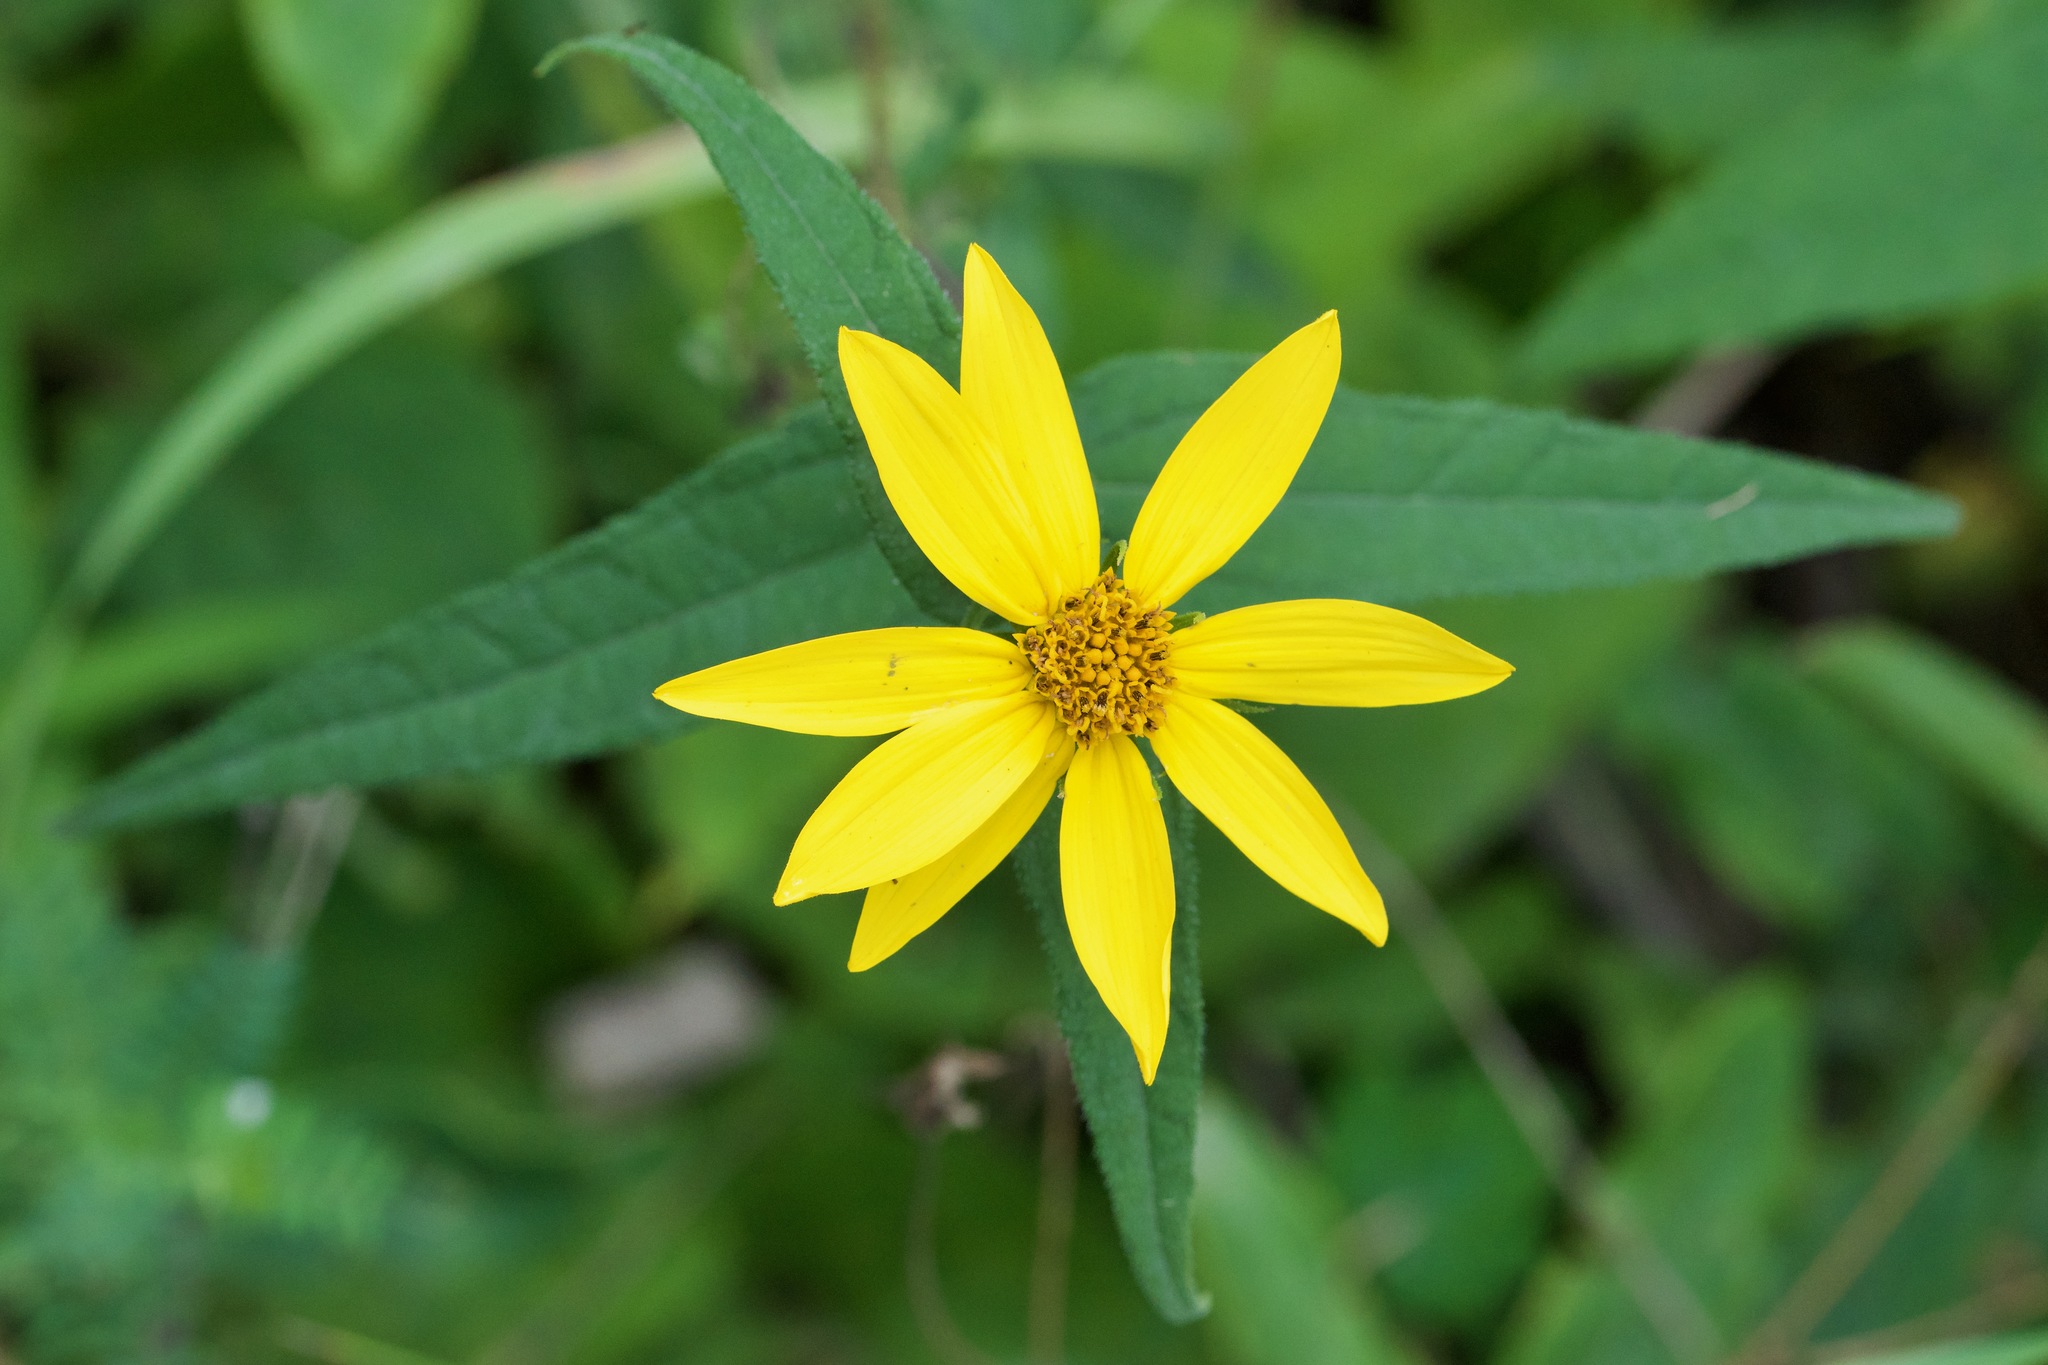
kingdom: Plantae
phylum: Tracheophyta
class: Magnoliopsida
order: Asterales
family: Asteraceae
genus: Helianthus
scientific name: Helianthus divaricatus
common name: Divergent sunflower
